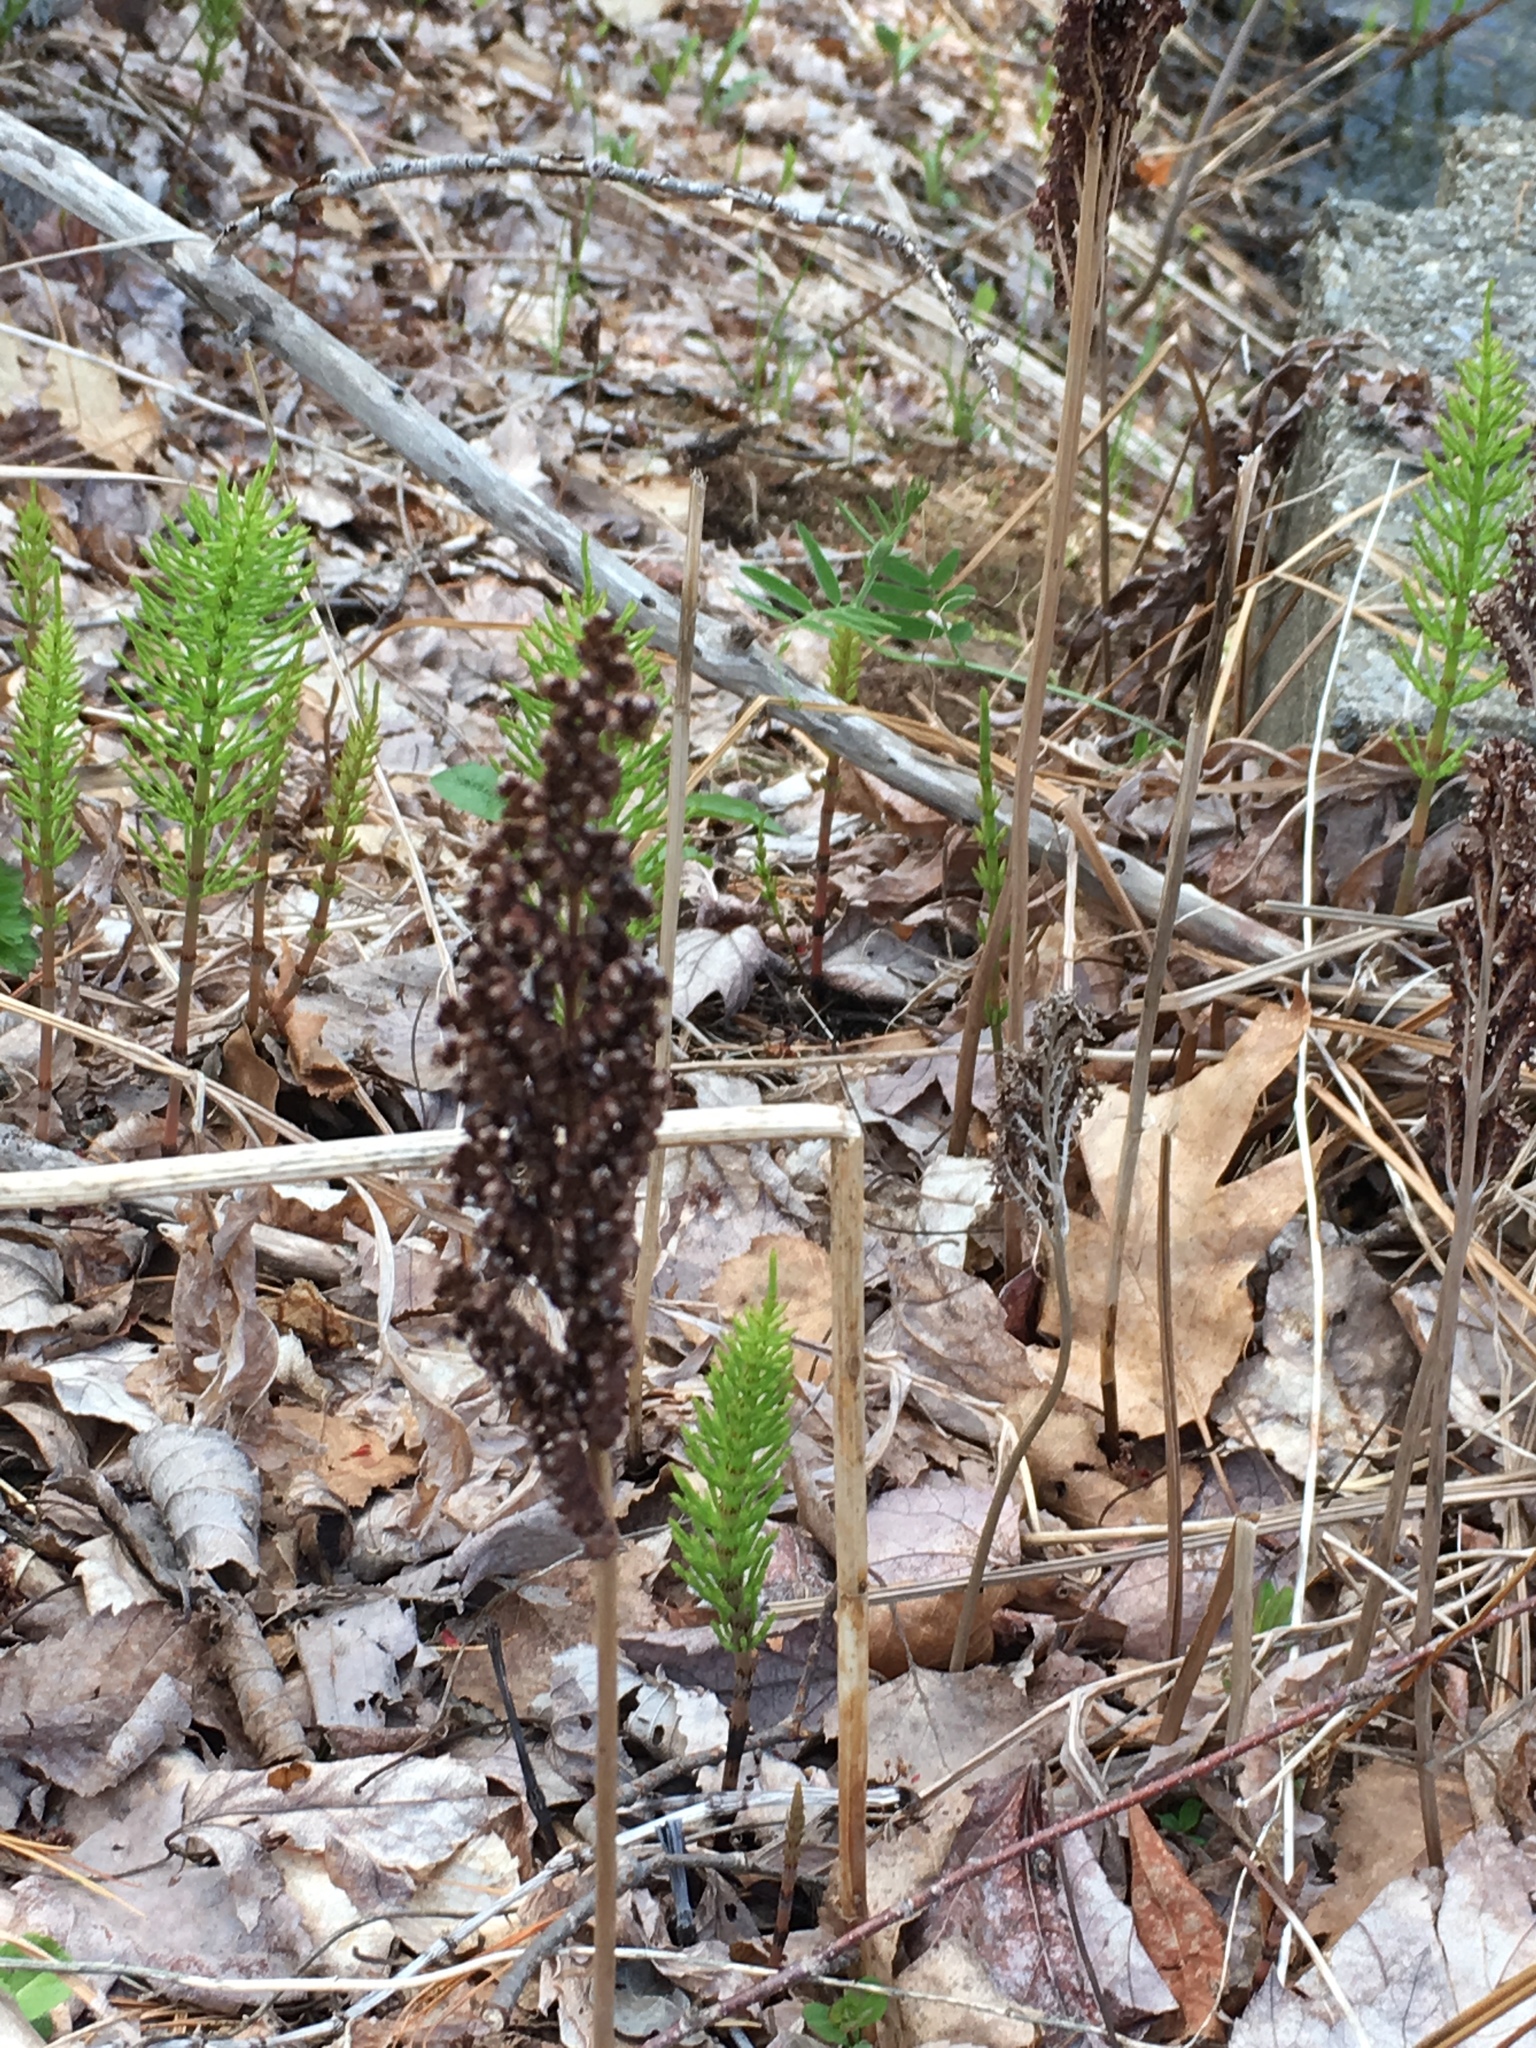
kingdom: Plantae
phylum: Tracheophyta
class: Polypodiopsida
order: Equisetales
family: Equisetaceae
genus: Equisetum
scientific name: Equisetum arvense
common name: Field horsetail
